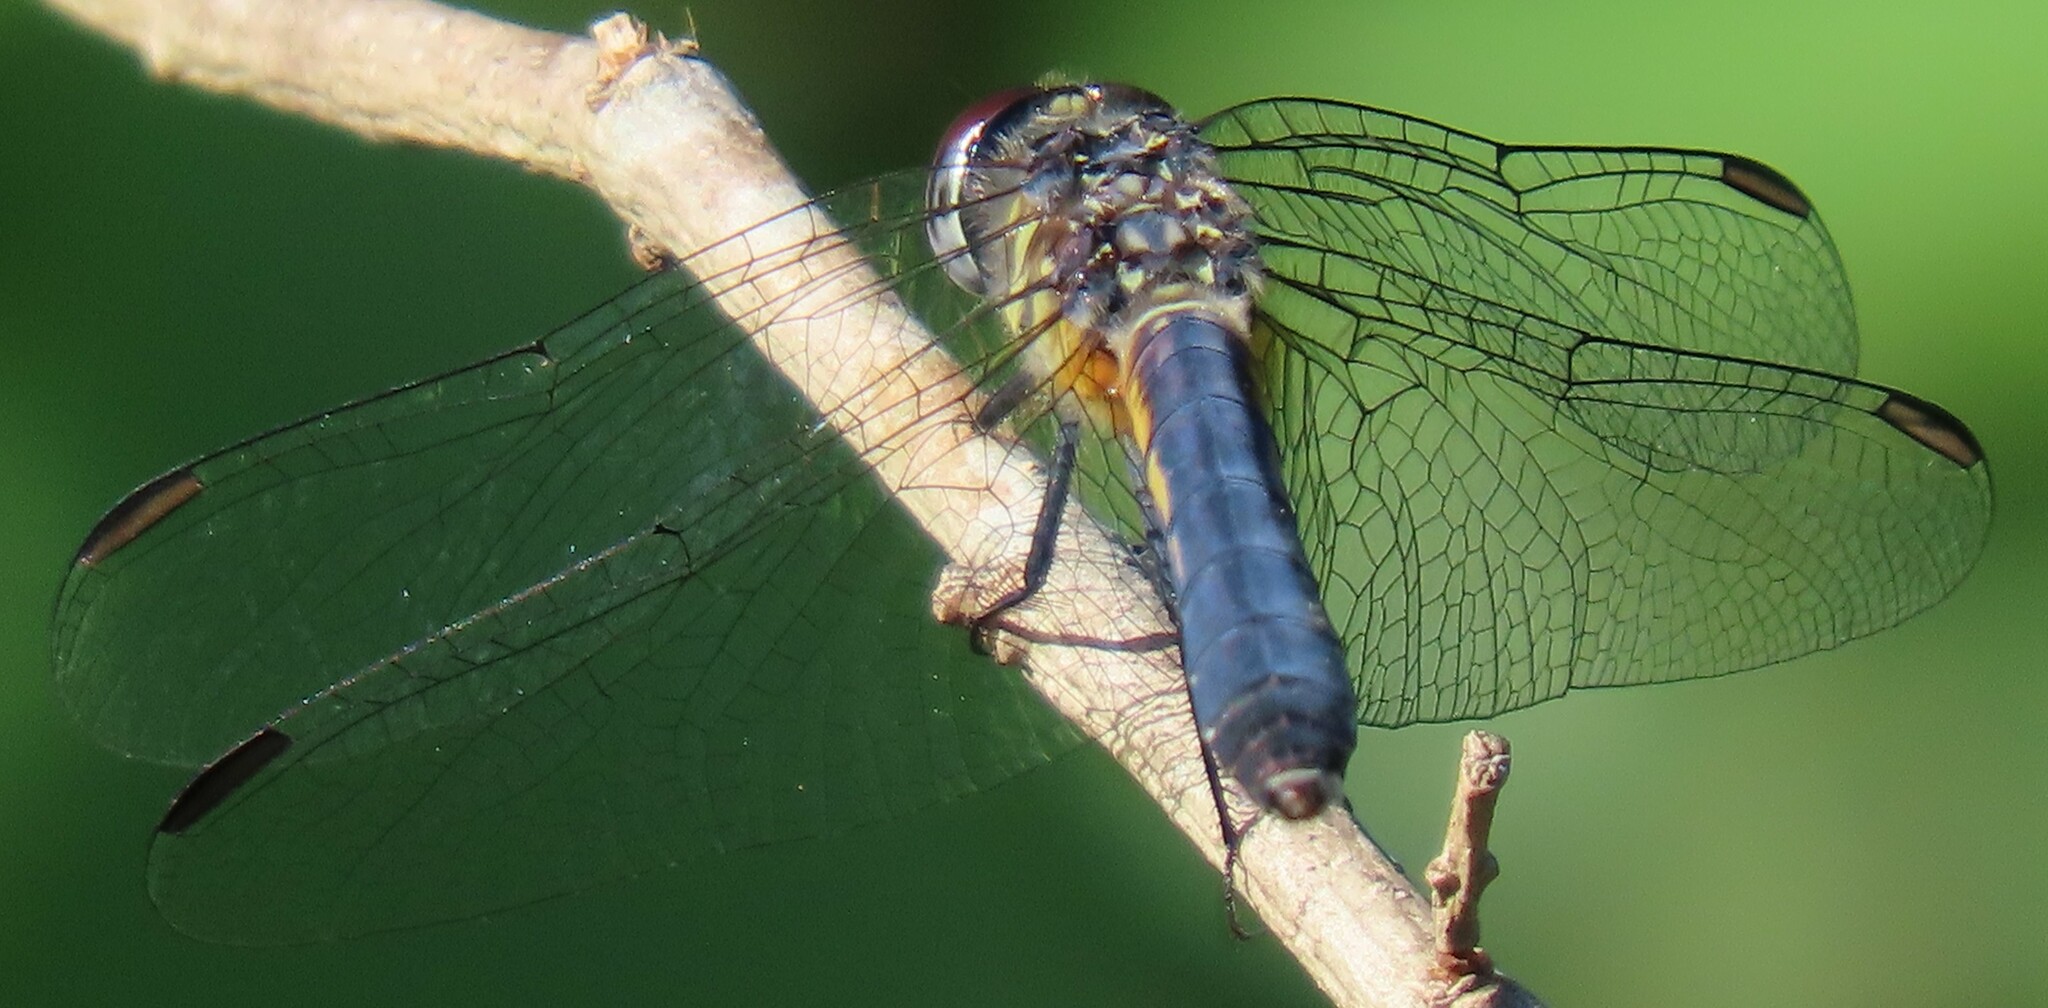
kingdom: Animalia
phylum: Arthropoda
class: Insecta
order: Odonata
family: Libellulidae
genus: Pachydiplax
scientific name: Pachydiplax longipennis
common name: Blue dasher
